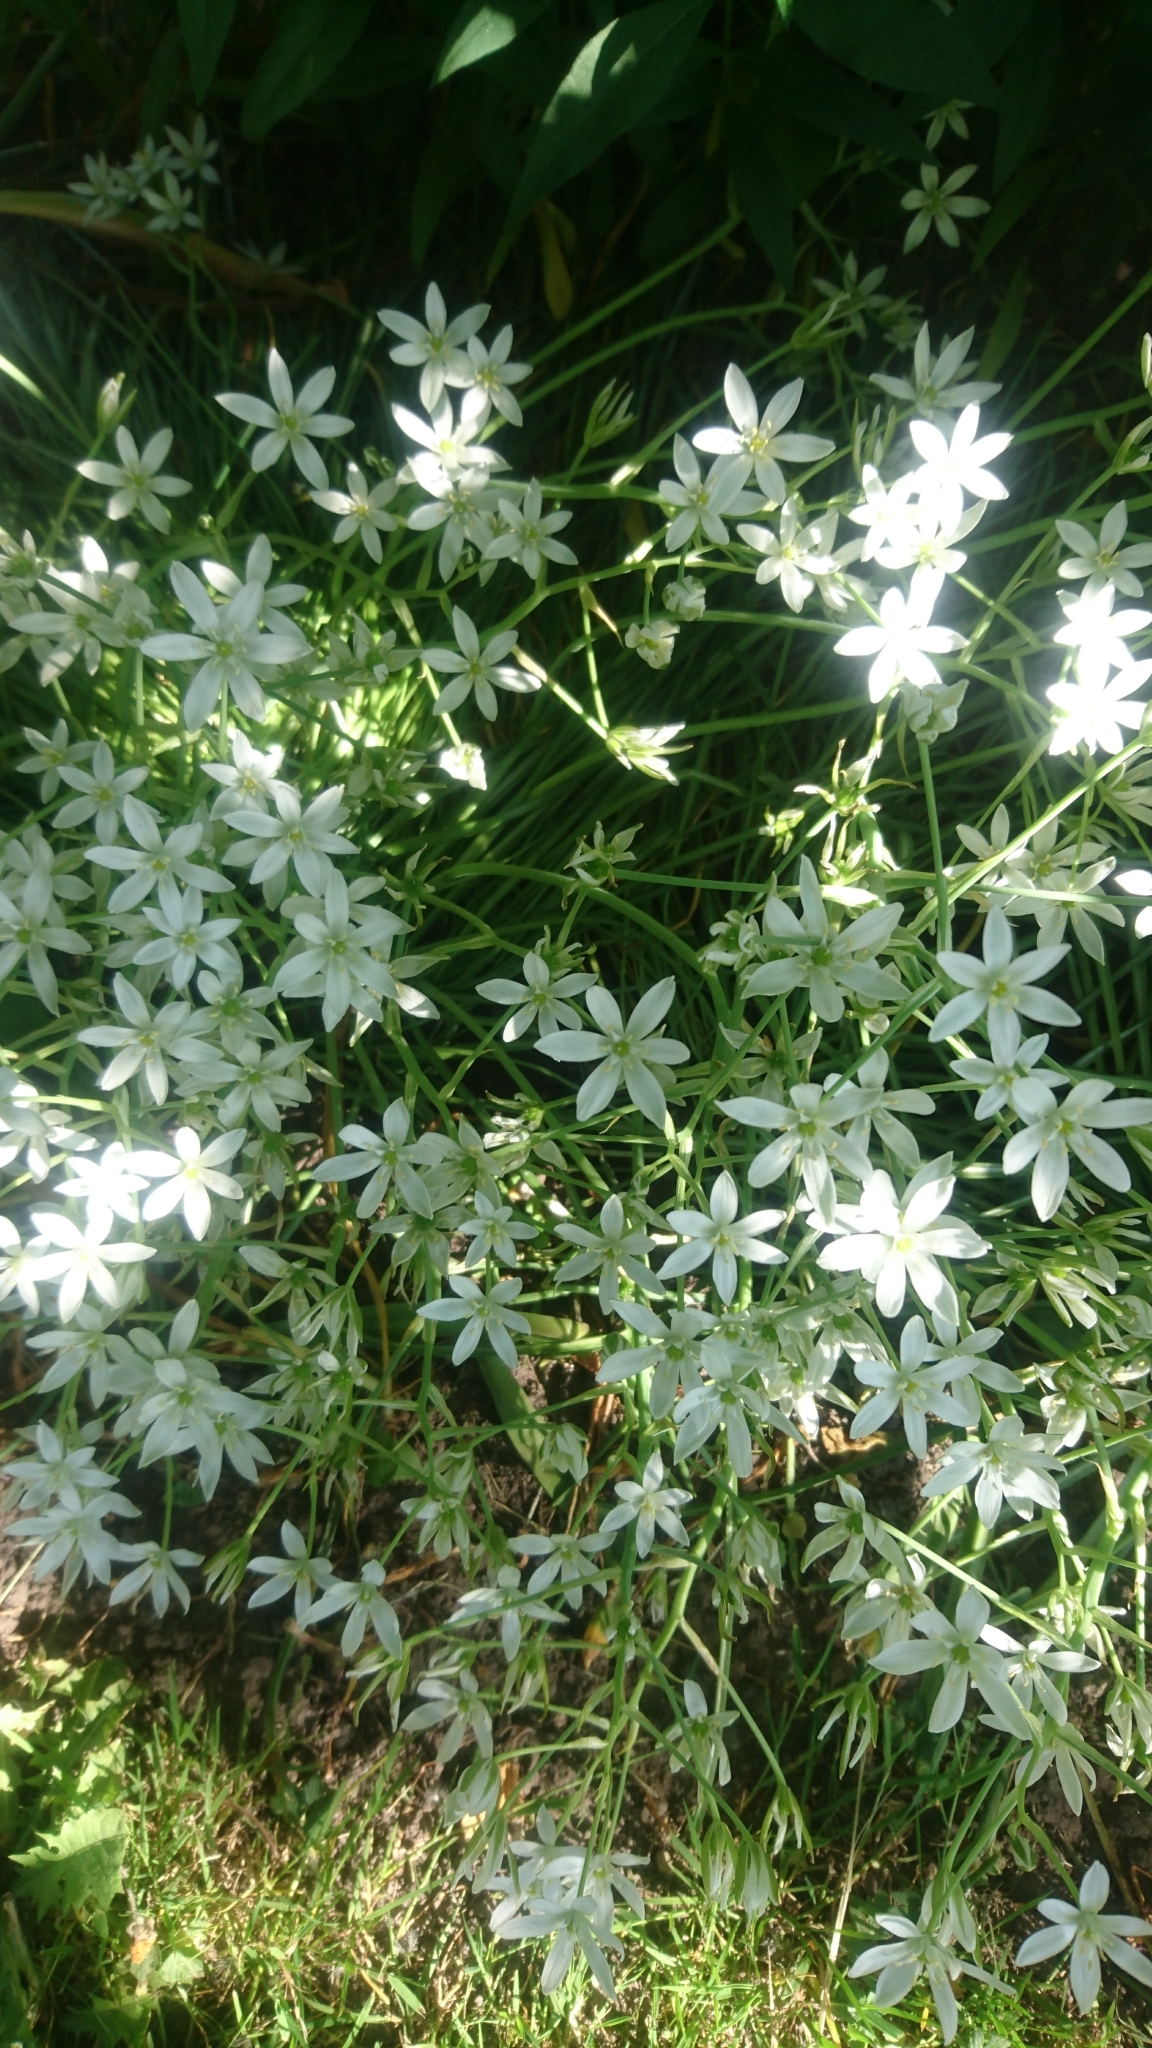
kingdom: Plantae
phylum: Tracheophyta
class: Liliopsida
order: Asparagales
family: Asparagaceae
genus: Ornithogalum
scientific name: Ornithogalum umbellatum
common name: Garden star-of-bethlehem
